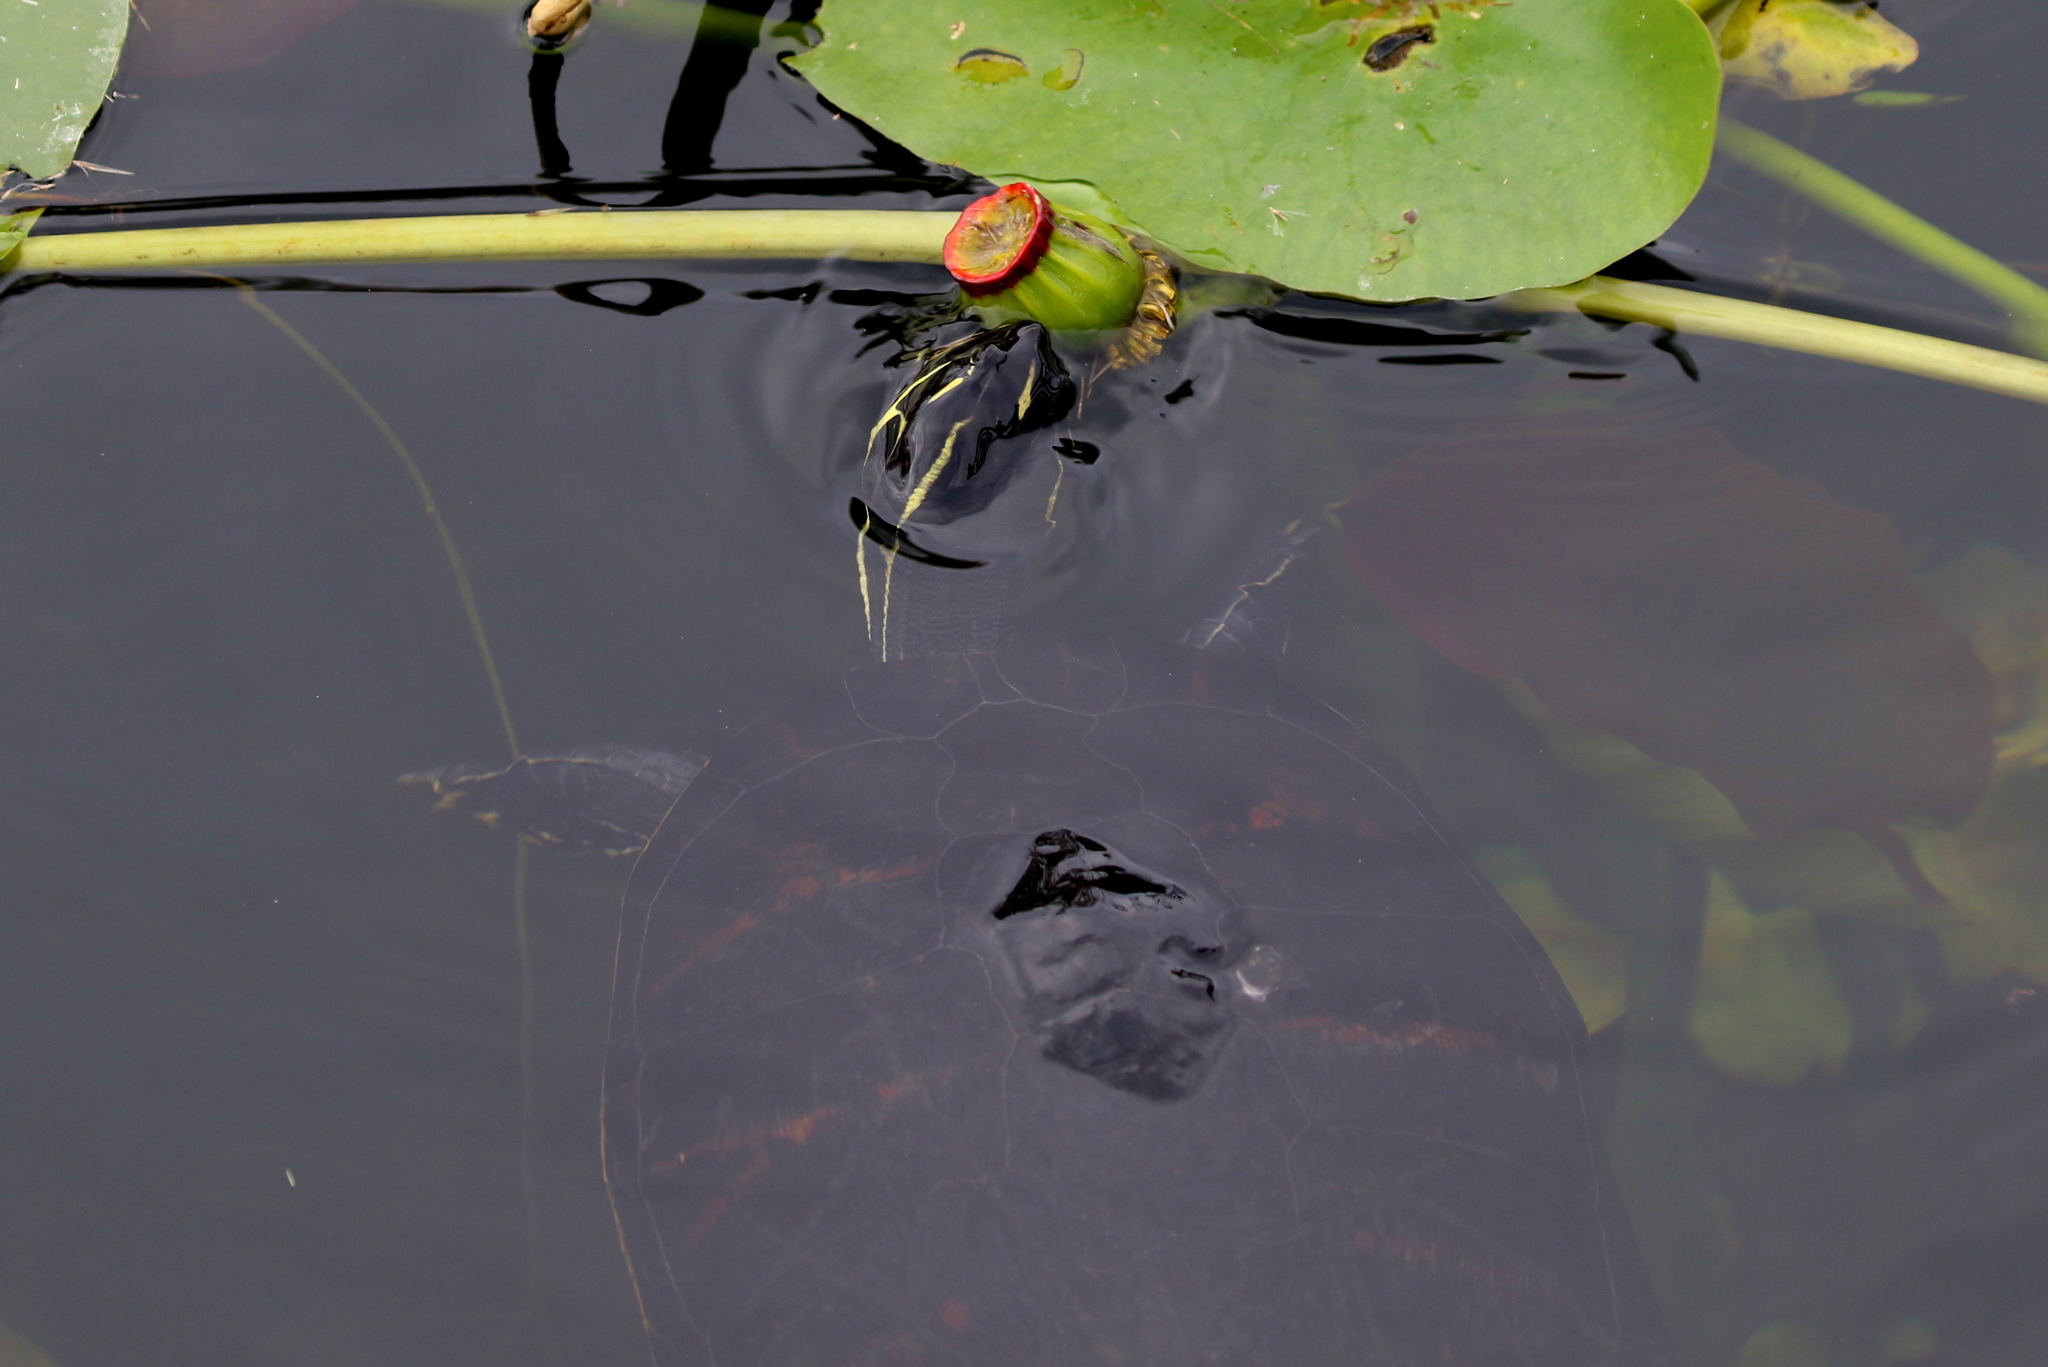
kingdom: Animalia
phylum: Chordata
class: Testudines
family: Emydidae
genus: Pseudemys
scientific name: Pseudemys nelsoni
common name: Florida red-bellied turtle
